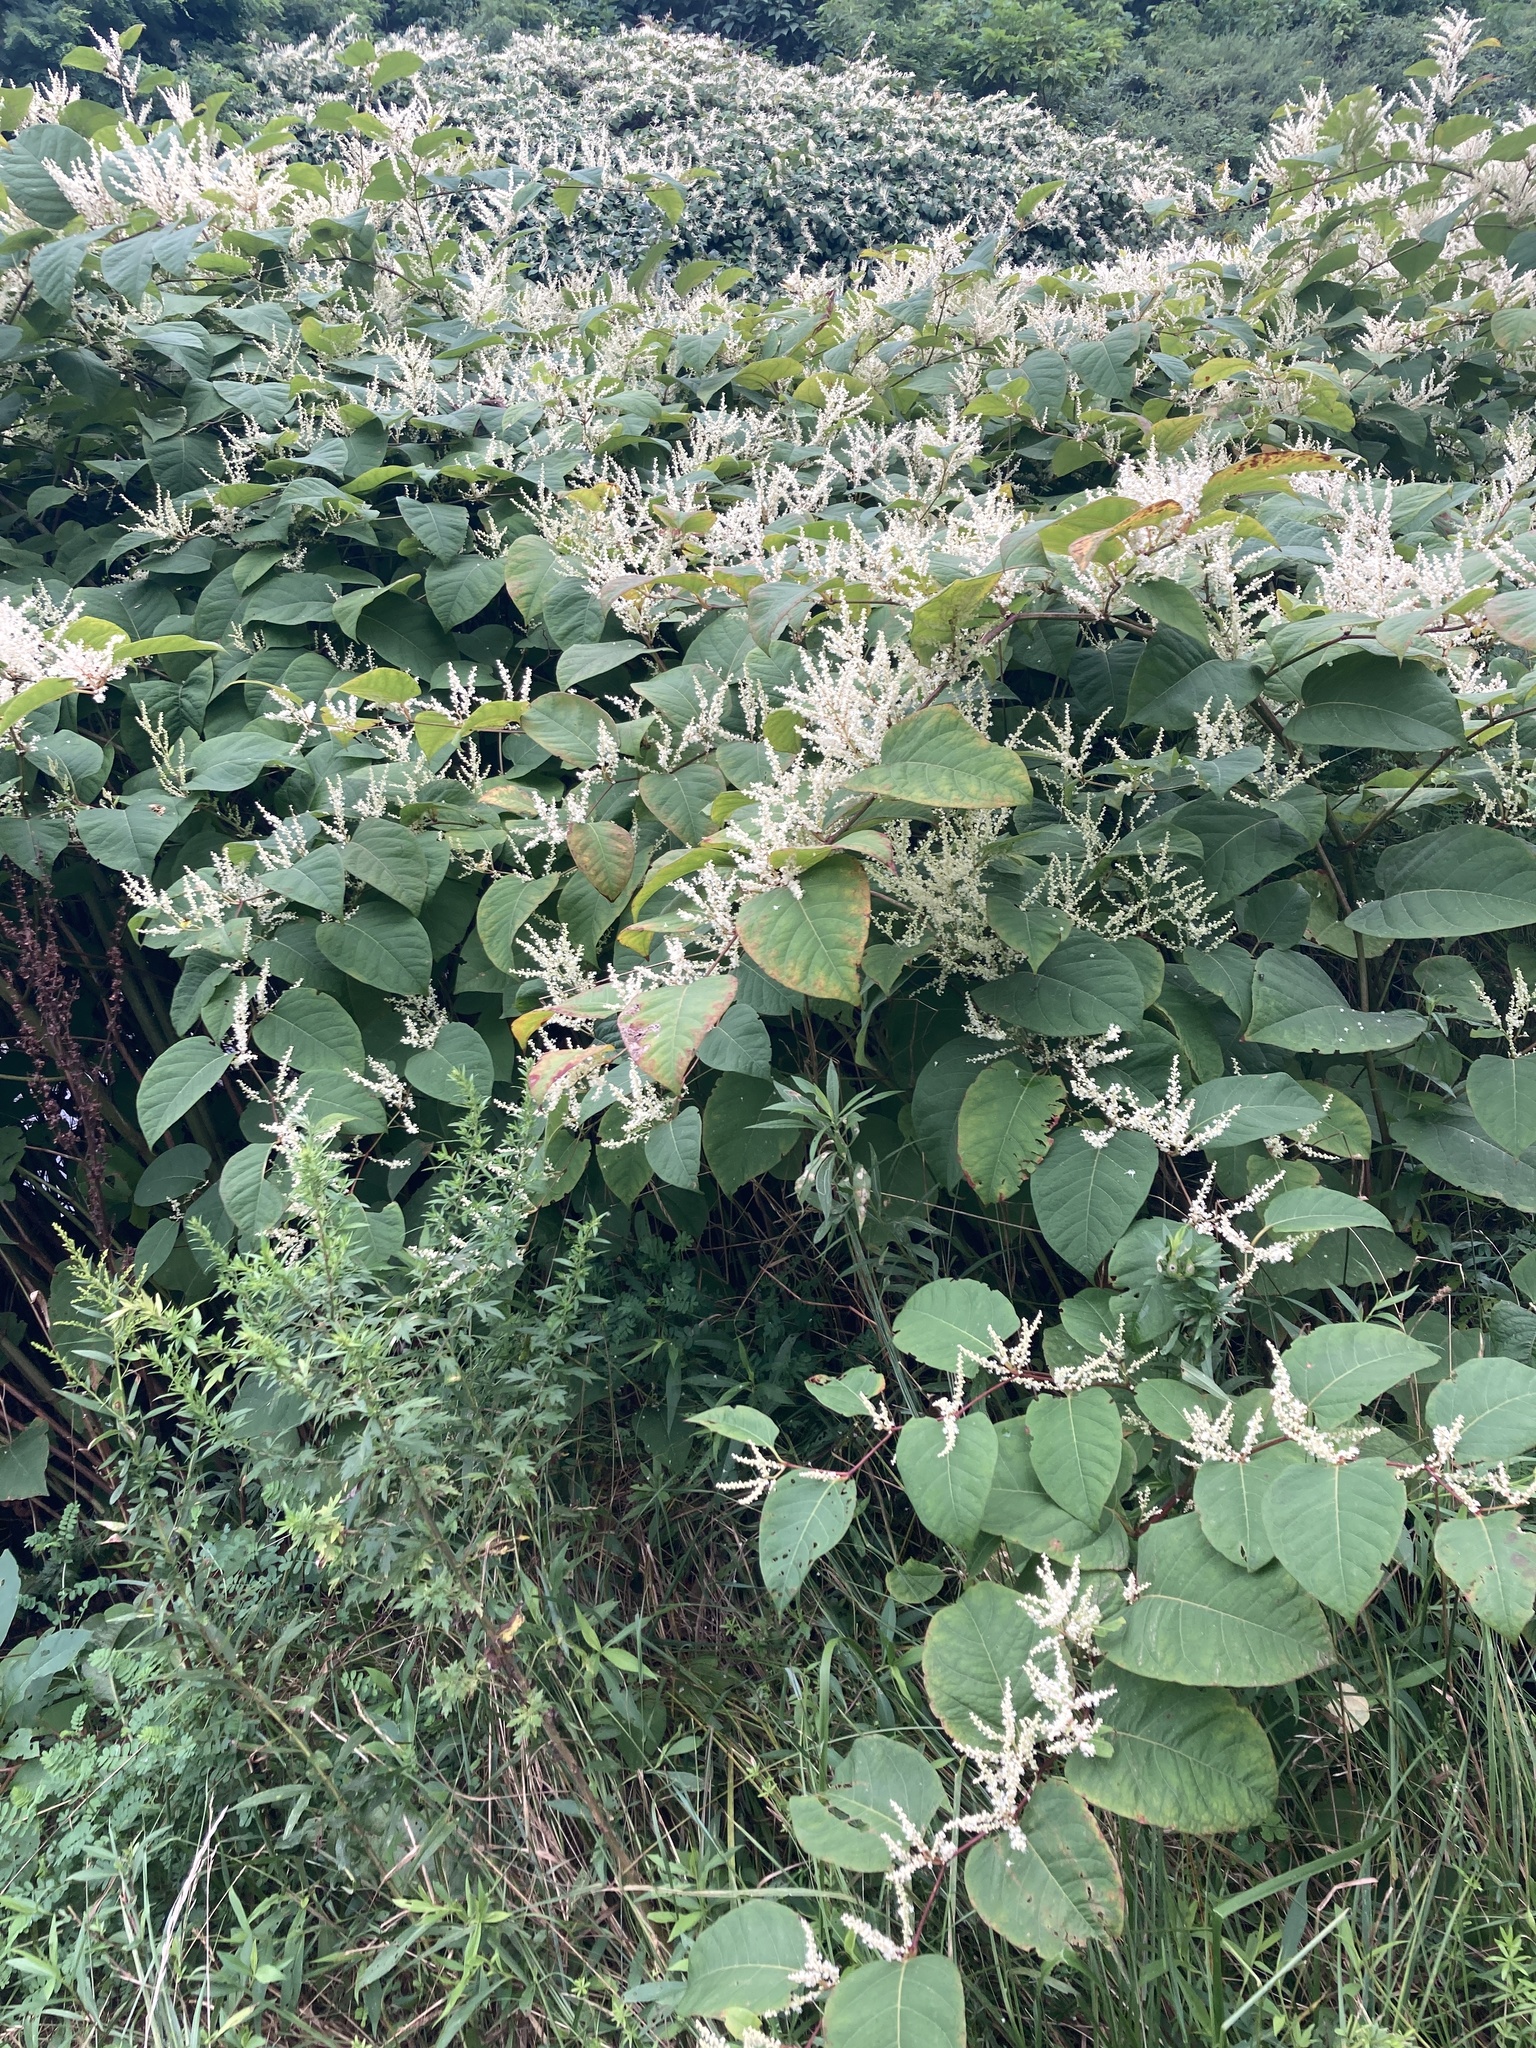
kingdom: Plantae
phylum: Tracheophyta
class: Magnoliopsida
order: Caryophyllales
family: Polygonaceae
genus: Reynoutria
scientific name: Reynoutria japonica
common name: Japanese knotweed
